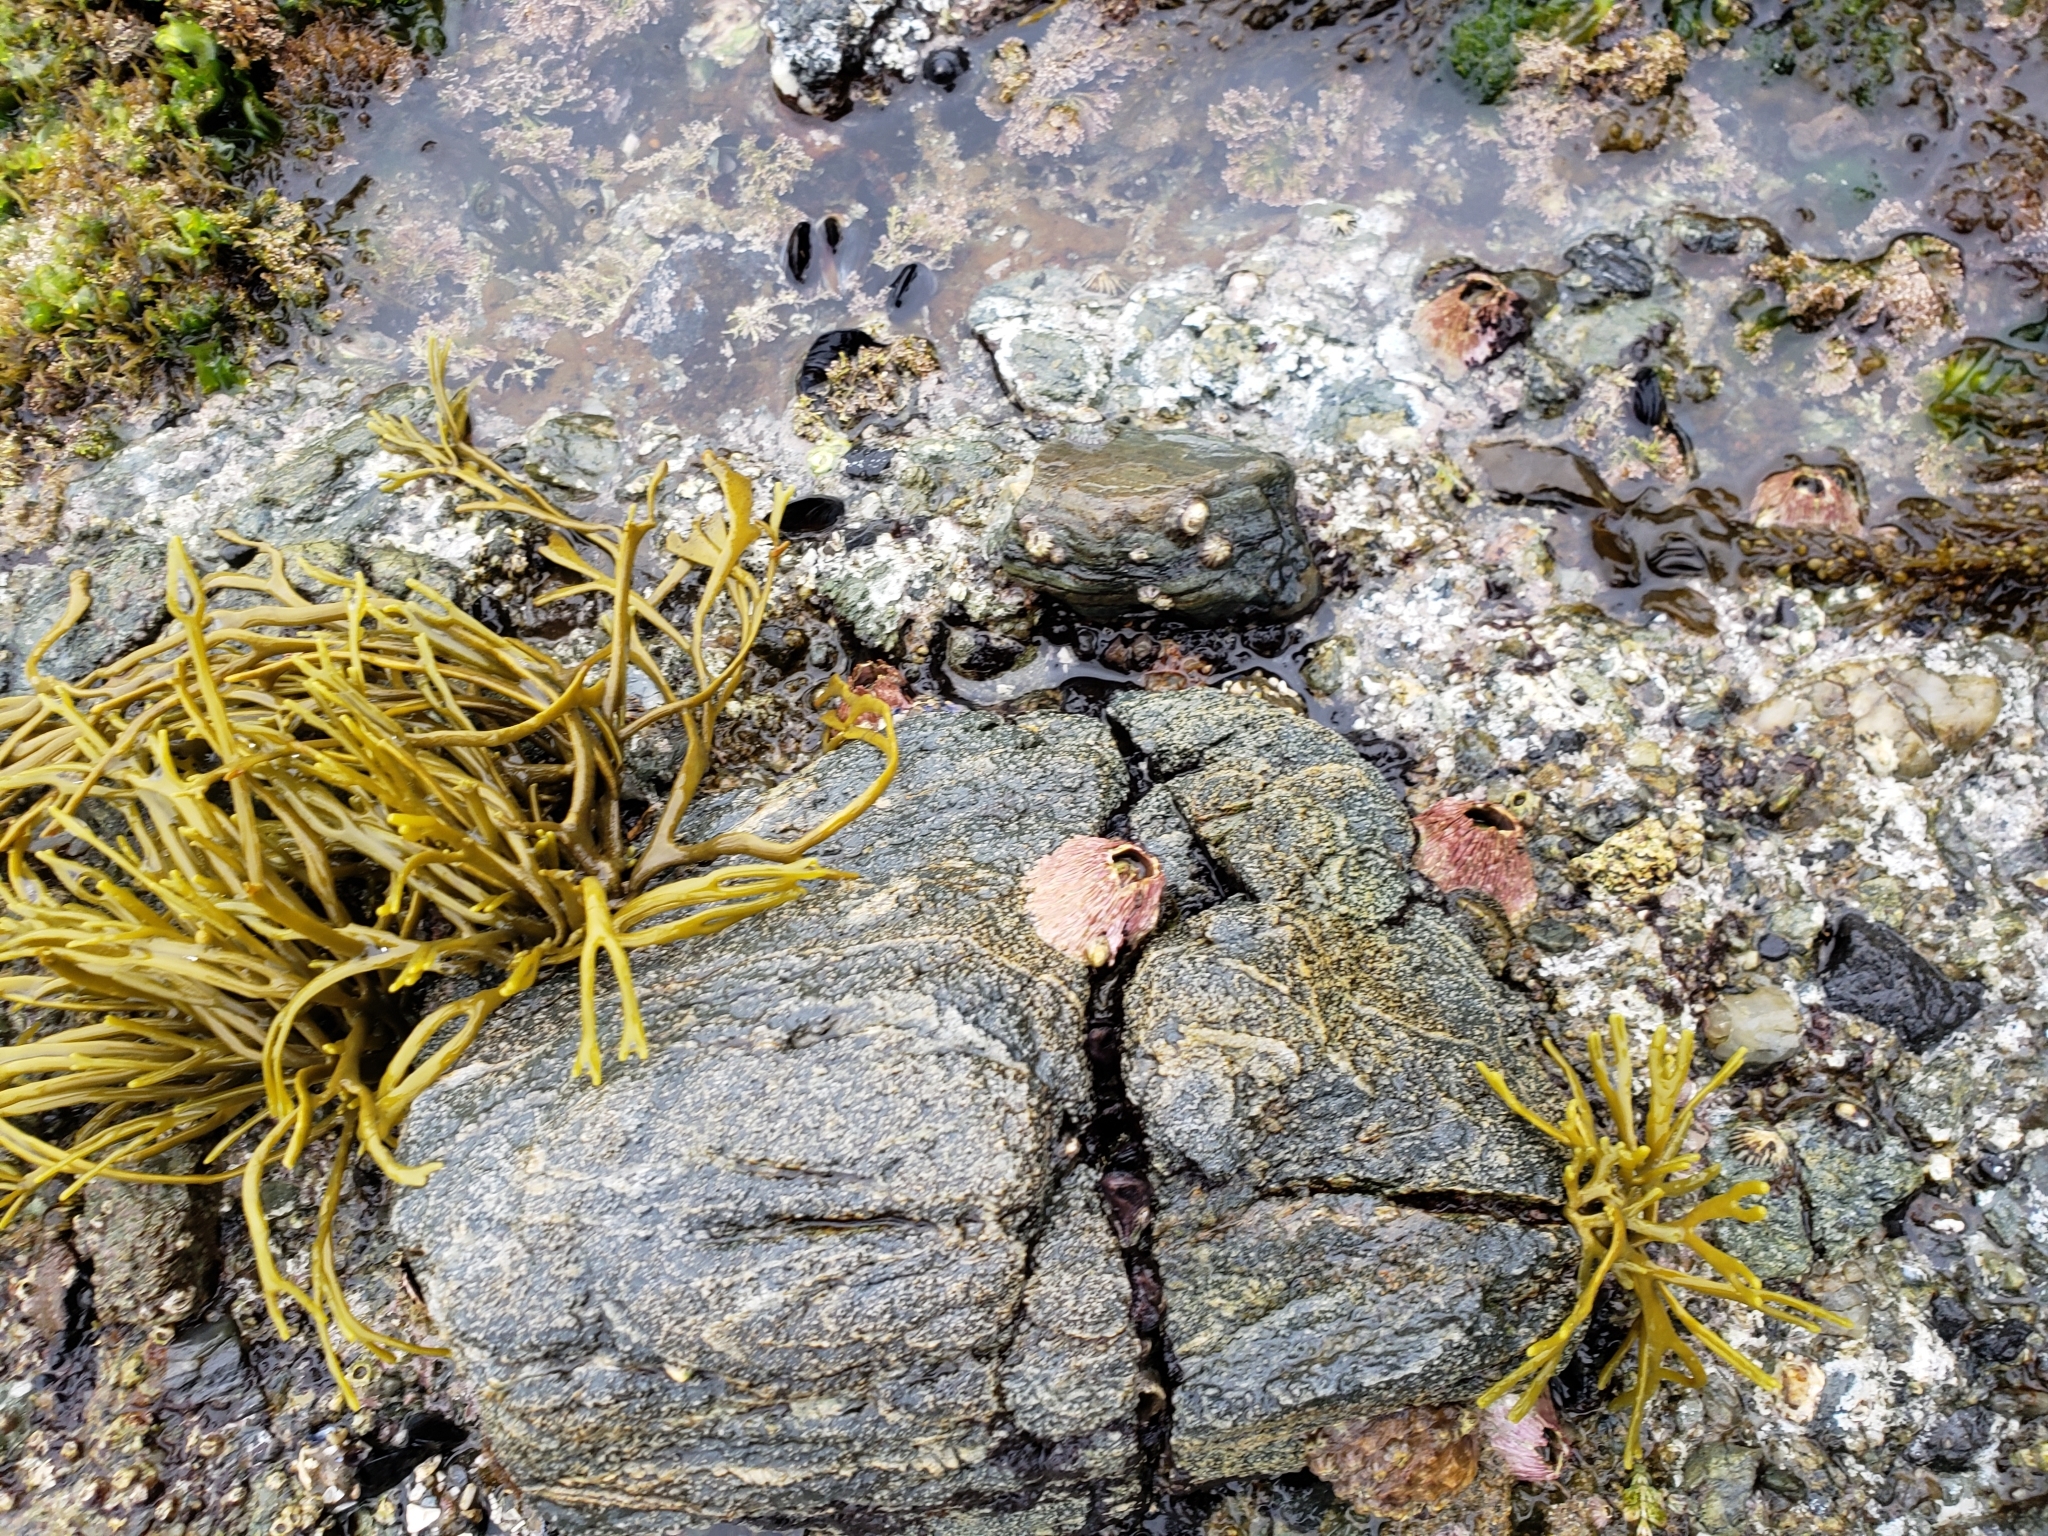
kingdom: Animalia
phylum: Arthropoda
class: Maxillopoda
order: Sessilia
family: Tetraclitidae
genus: Tetraclita
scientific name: Tetraclita rubescens
